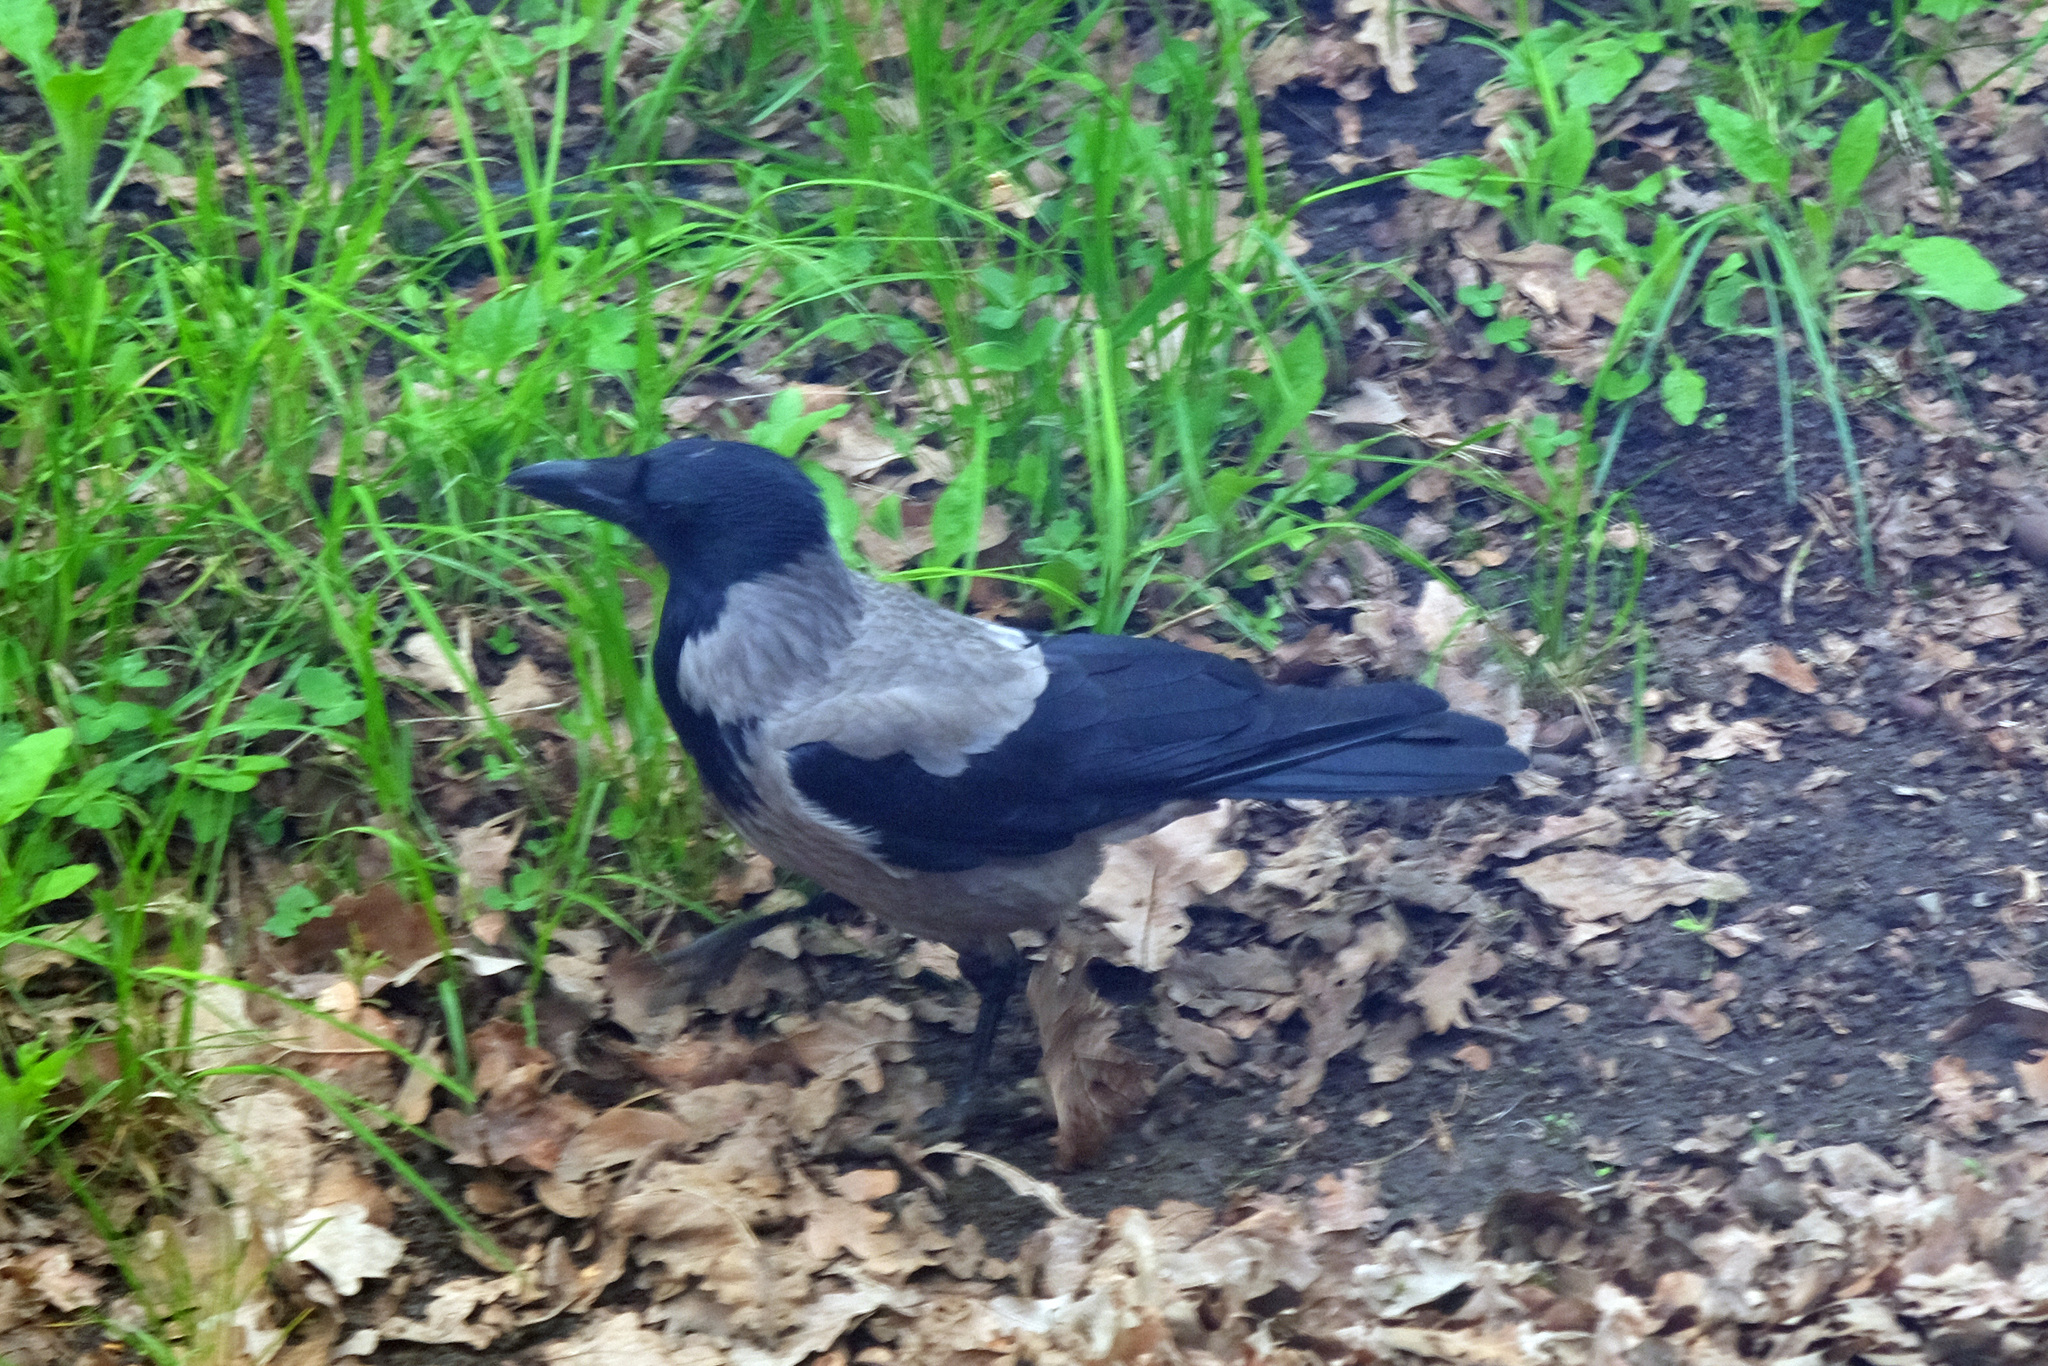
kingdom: Animalia
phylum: Chordata
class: Aves
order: Passeriformes
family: Corvidae
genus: Corvus
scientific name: Corvus cornix
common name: Hooded crow
